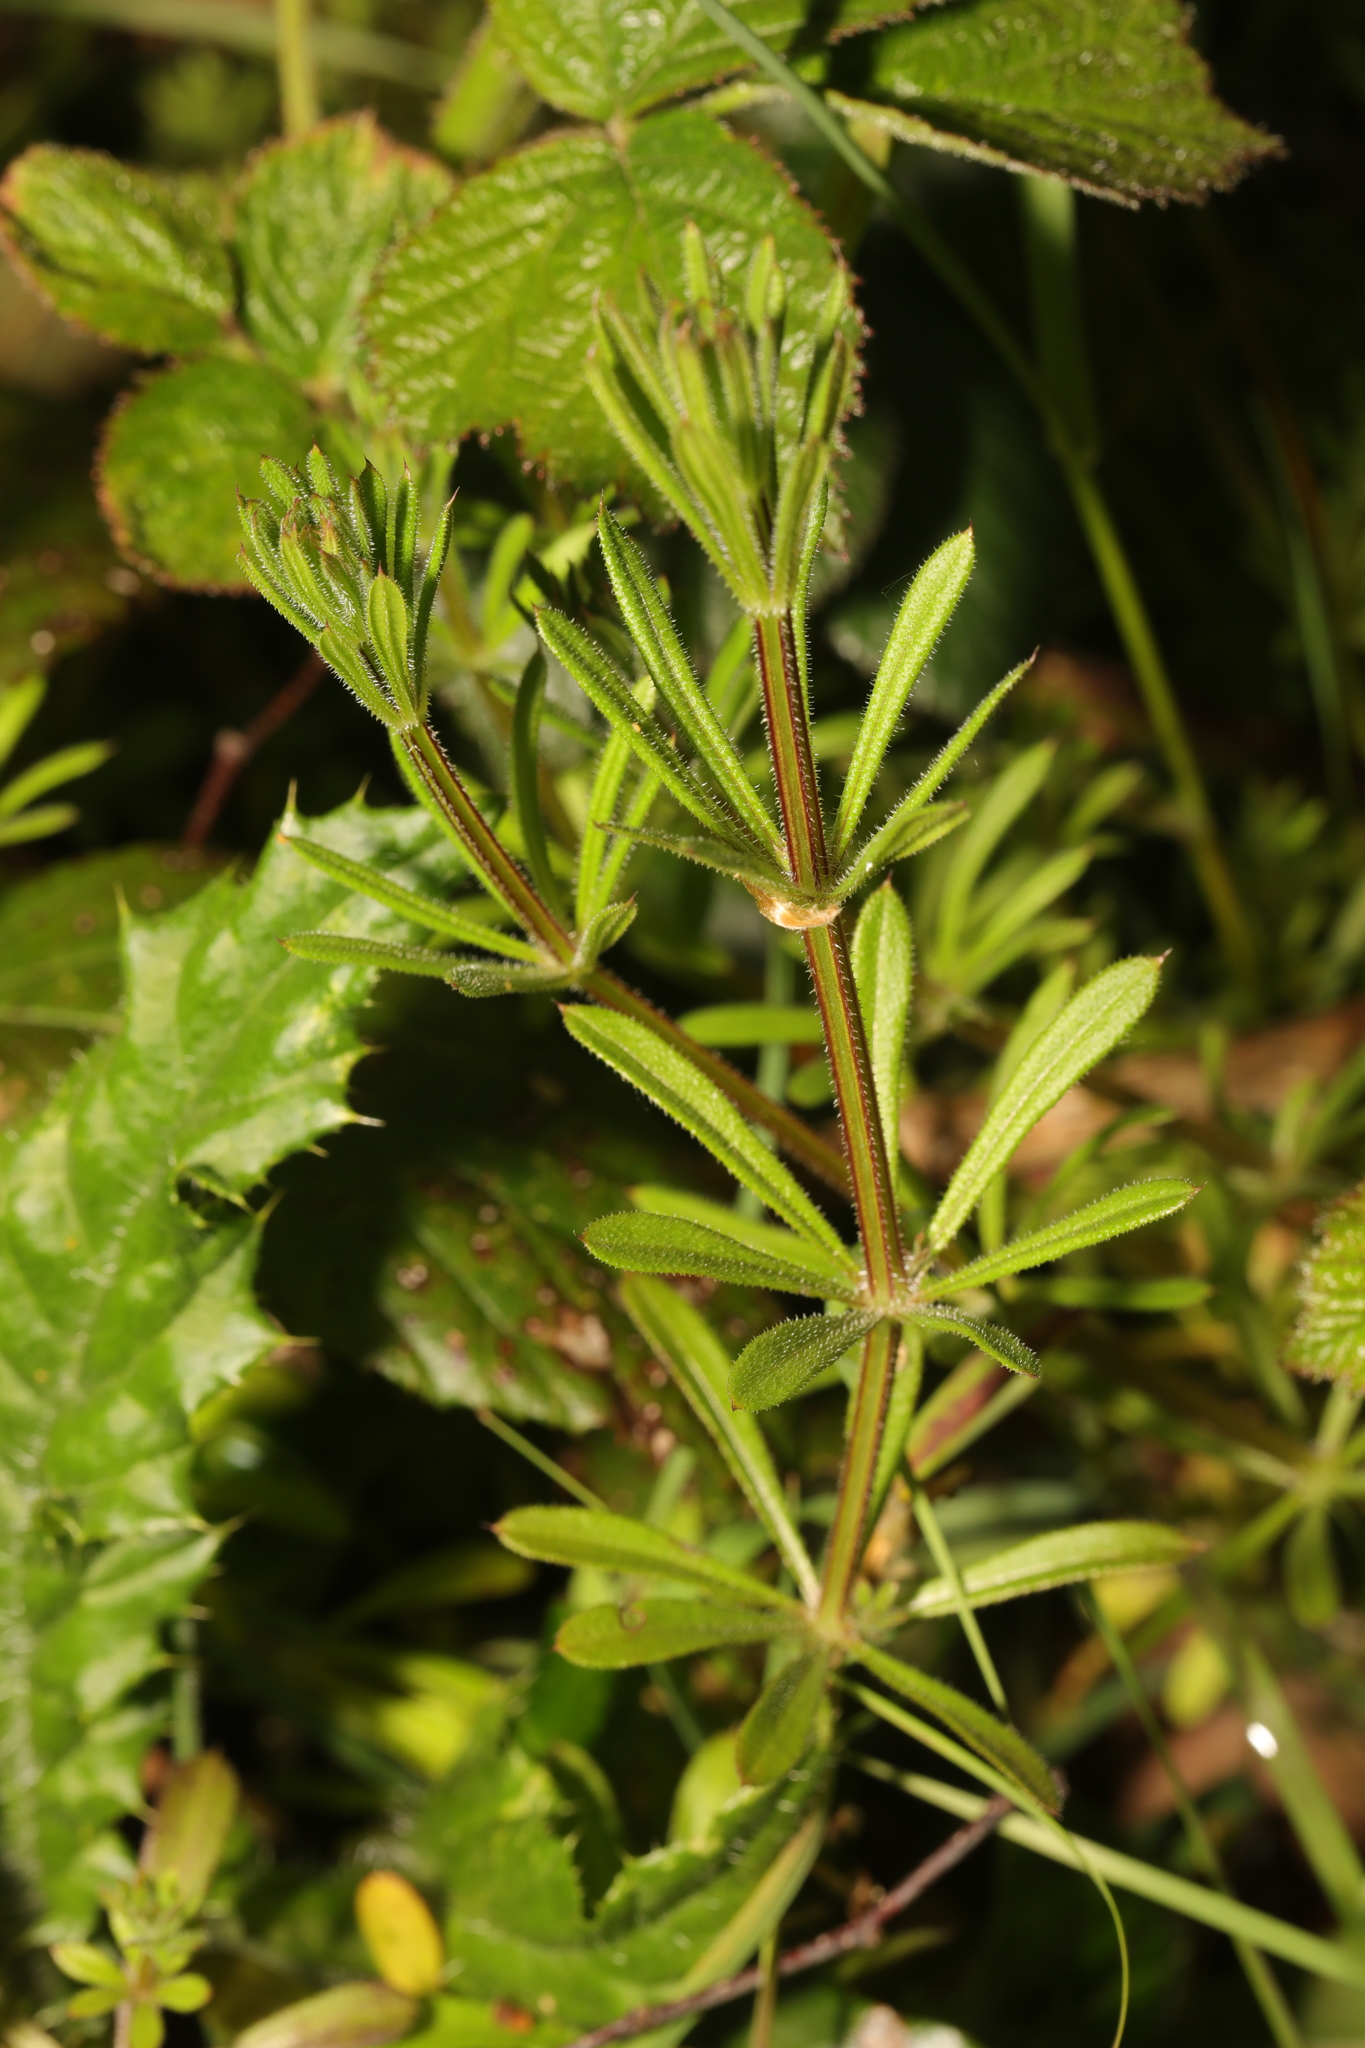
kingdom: Plantae
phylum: Tracheophyta
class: Magnoliopsida
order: Gentianales
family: Rubiaceae
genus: Galium
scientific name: Galium aparine
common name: Cleavers
